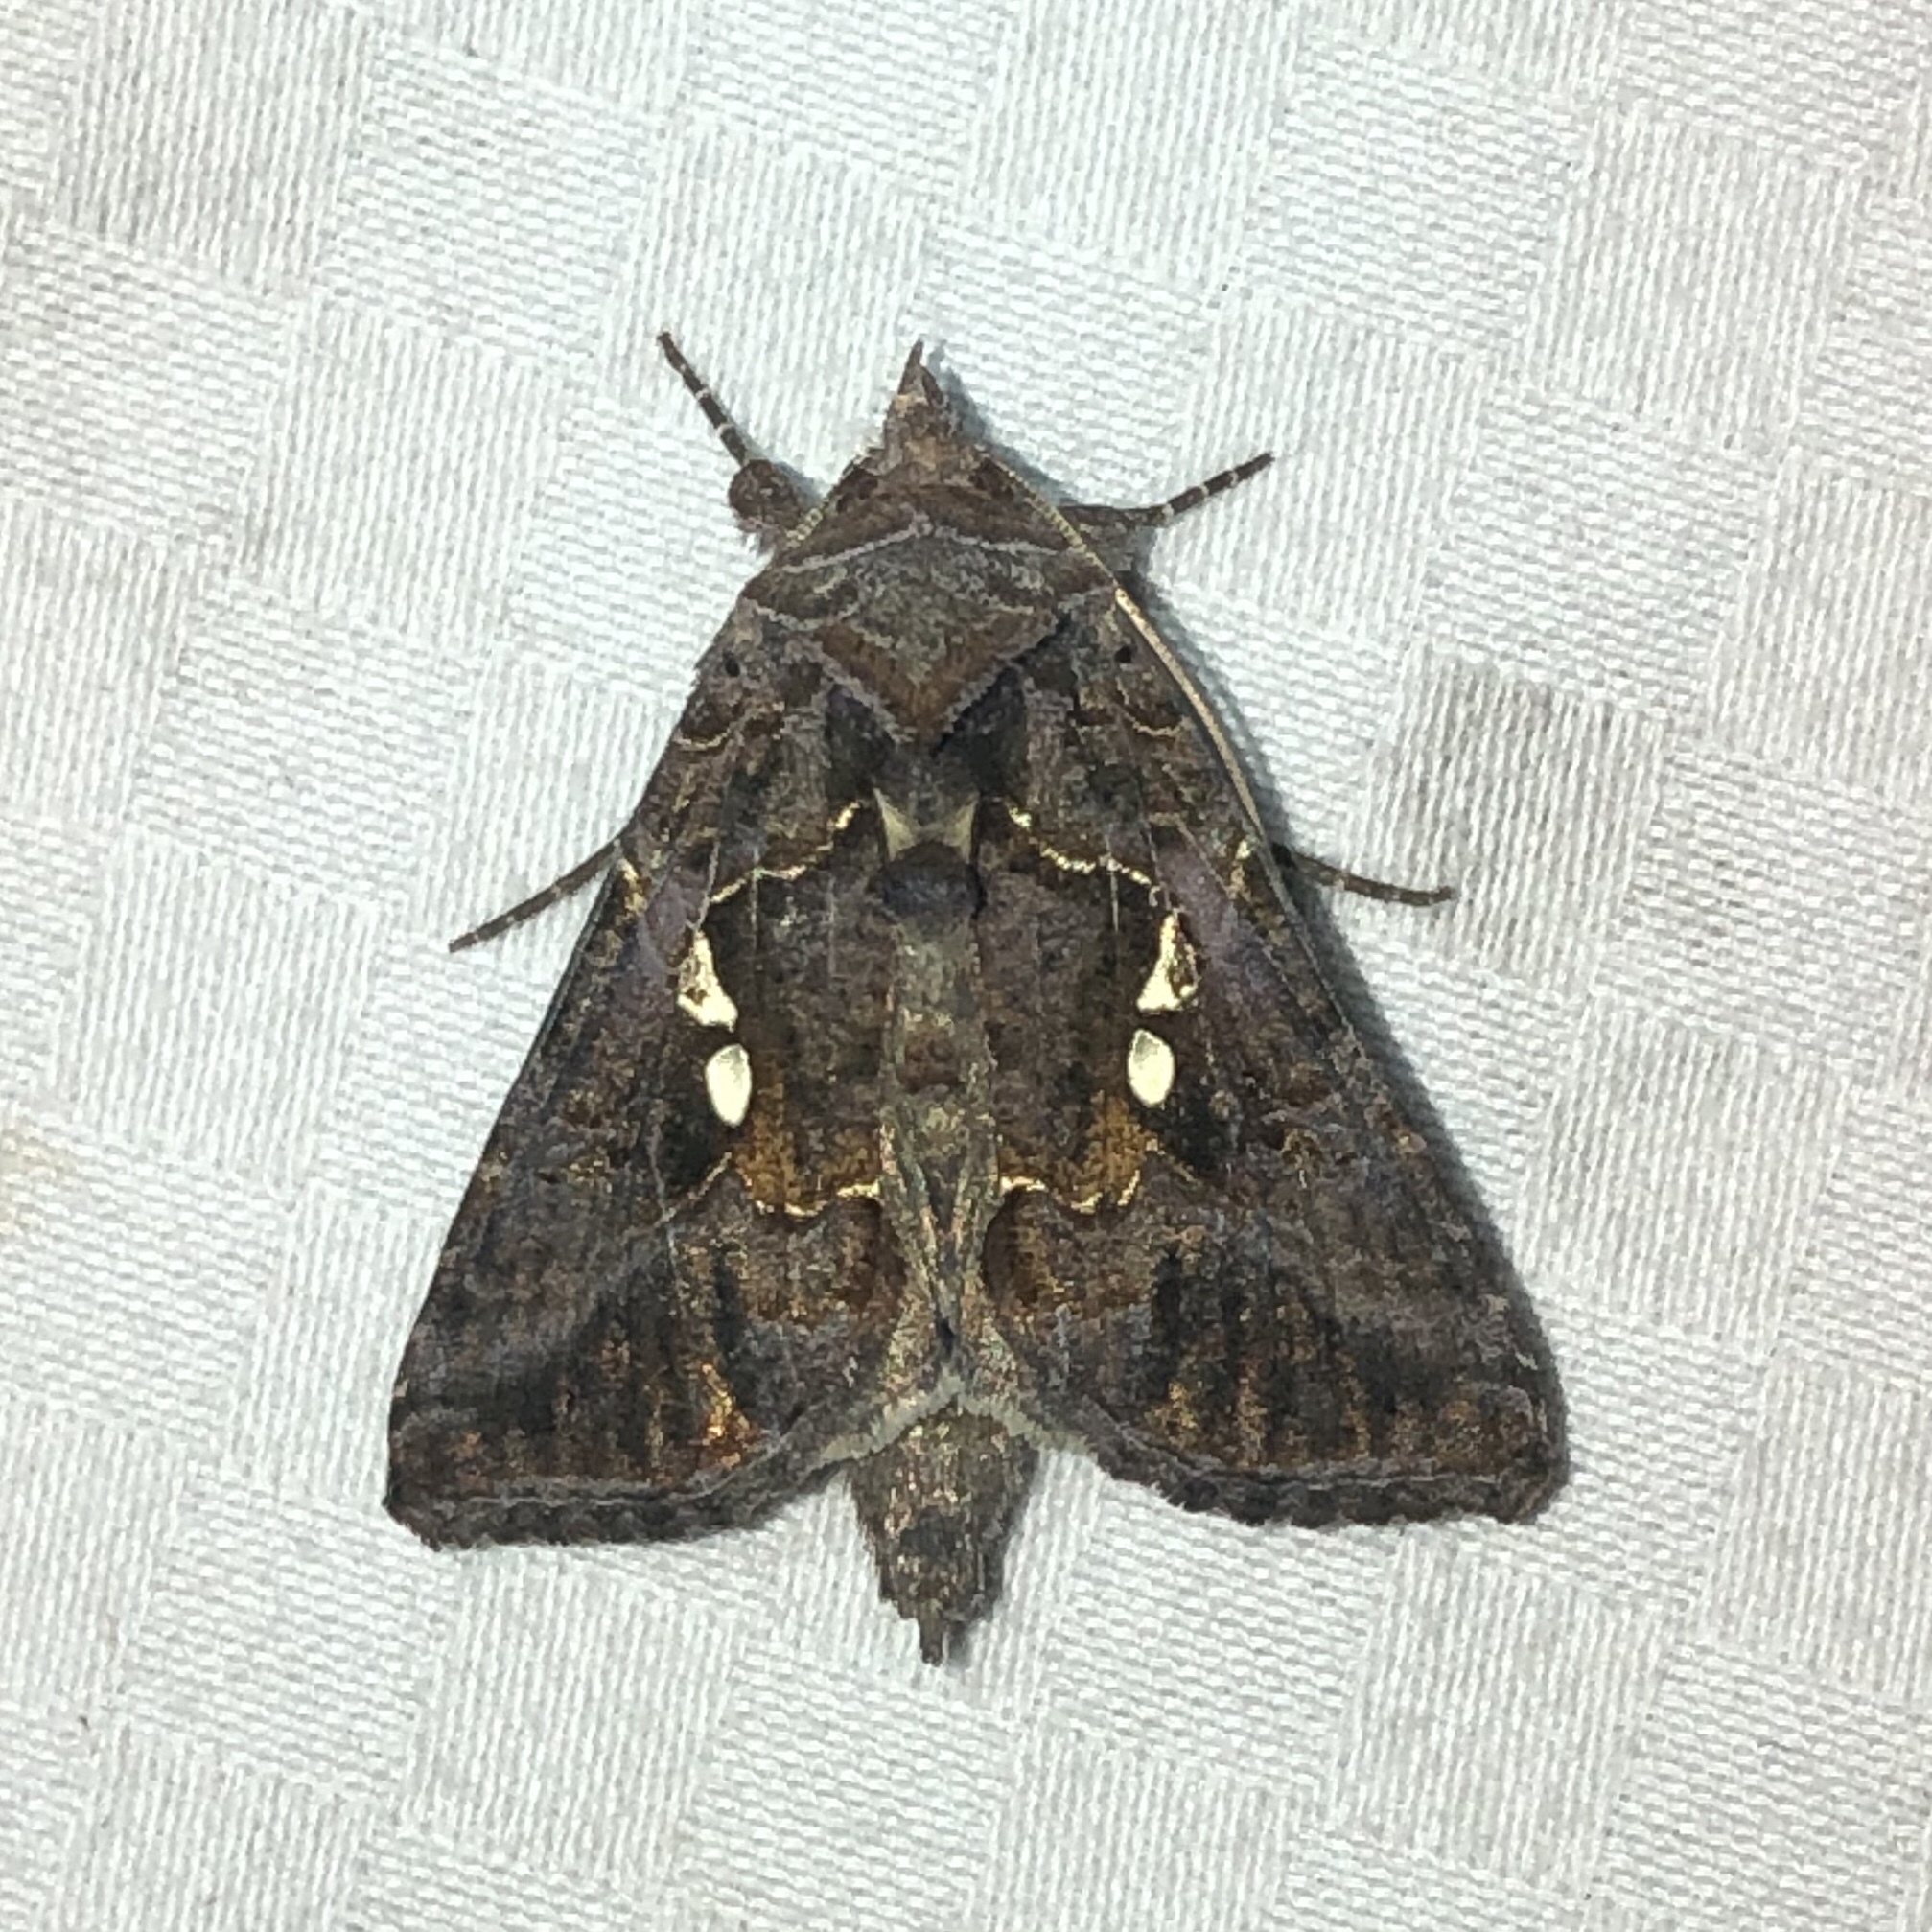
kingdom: Animalia
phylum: Arthropoda
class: Insecta
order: Lepidoptera
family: Noctuidae
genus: Autographa
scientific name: Autographa precationis
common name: Common looper moth
